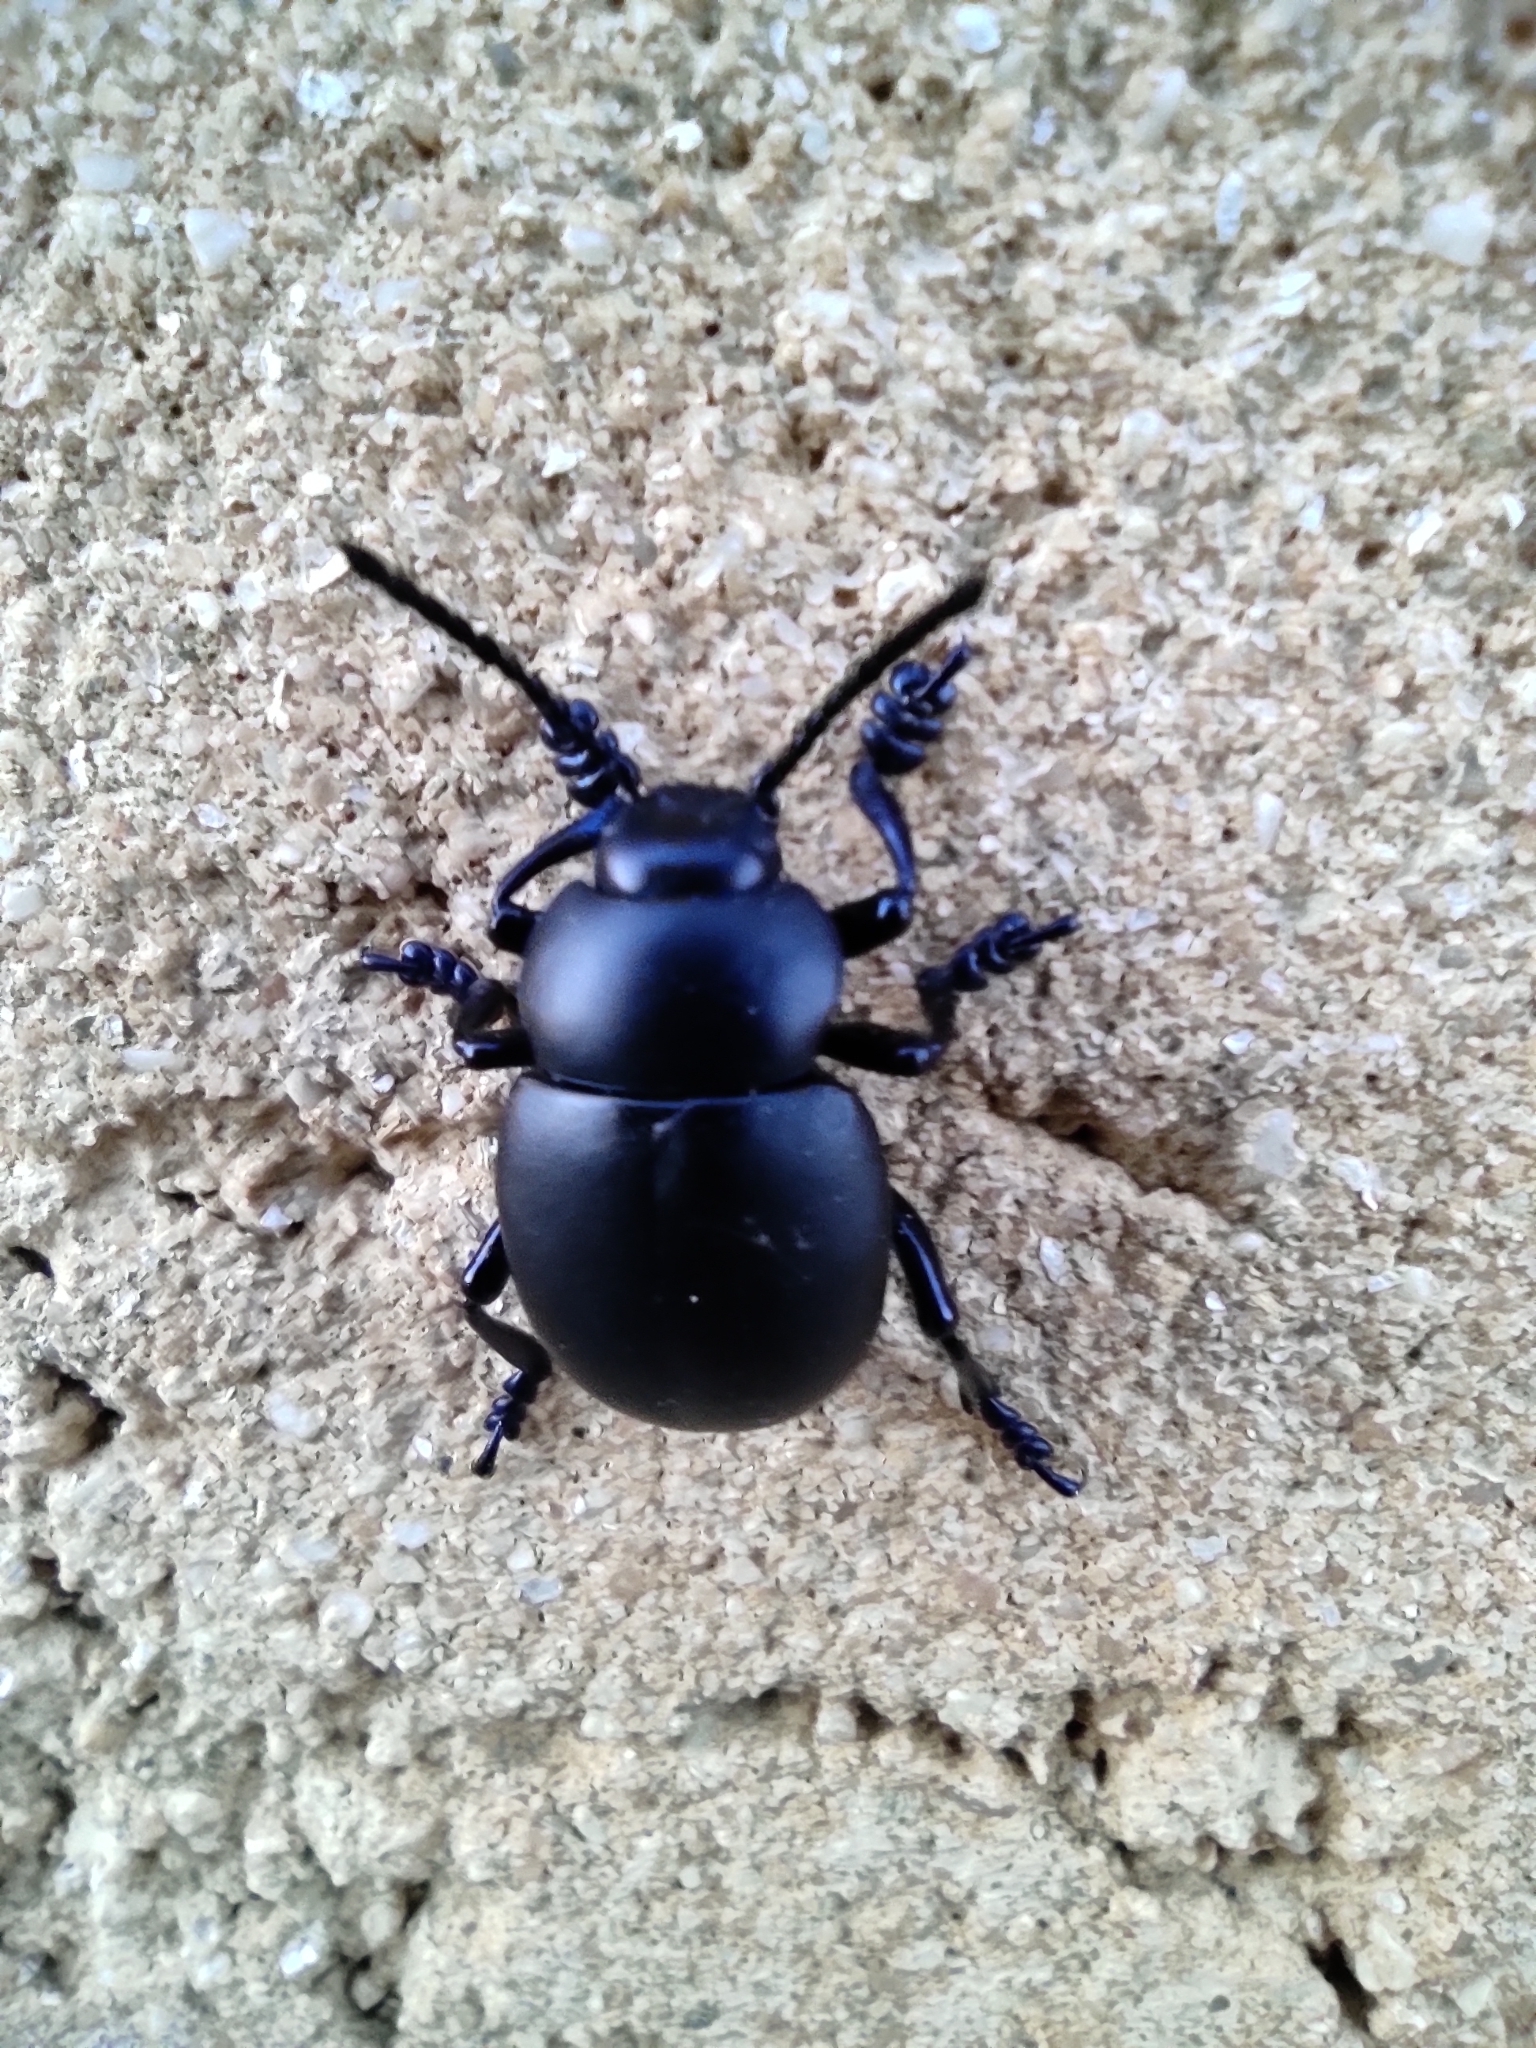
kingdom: Animalia
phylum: Arthropoda
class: Insecta
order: Coleoptera
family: Chrysomelidae
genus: Timarcha
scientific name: Timarcha tenebricosa
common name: Bloody-nosed beetle
